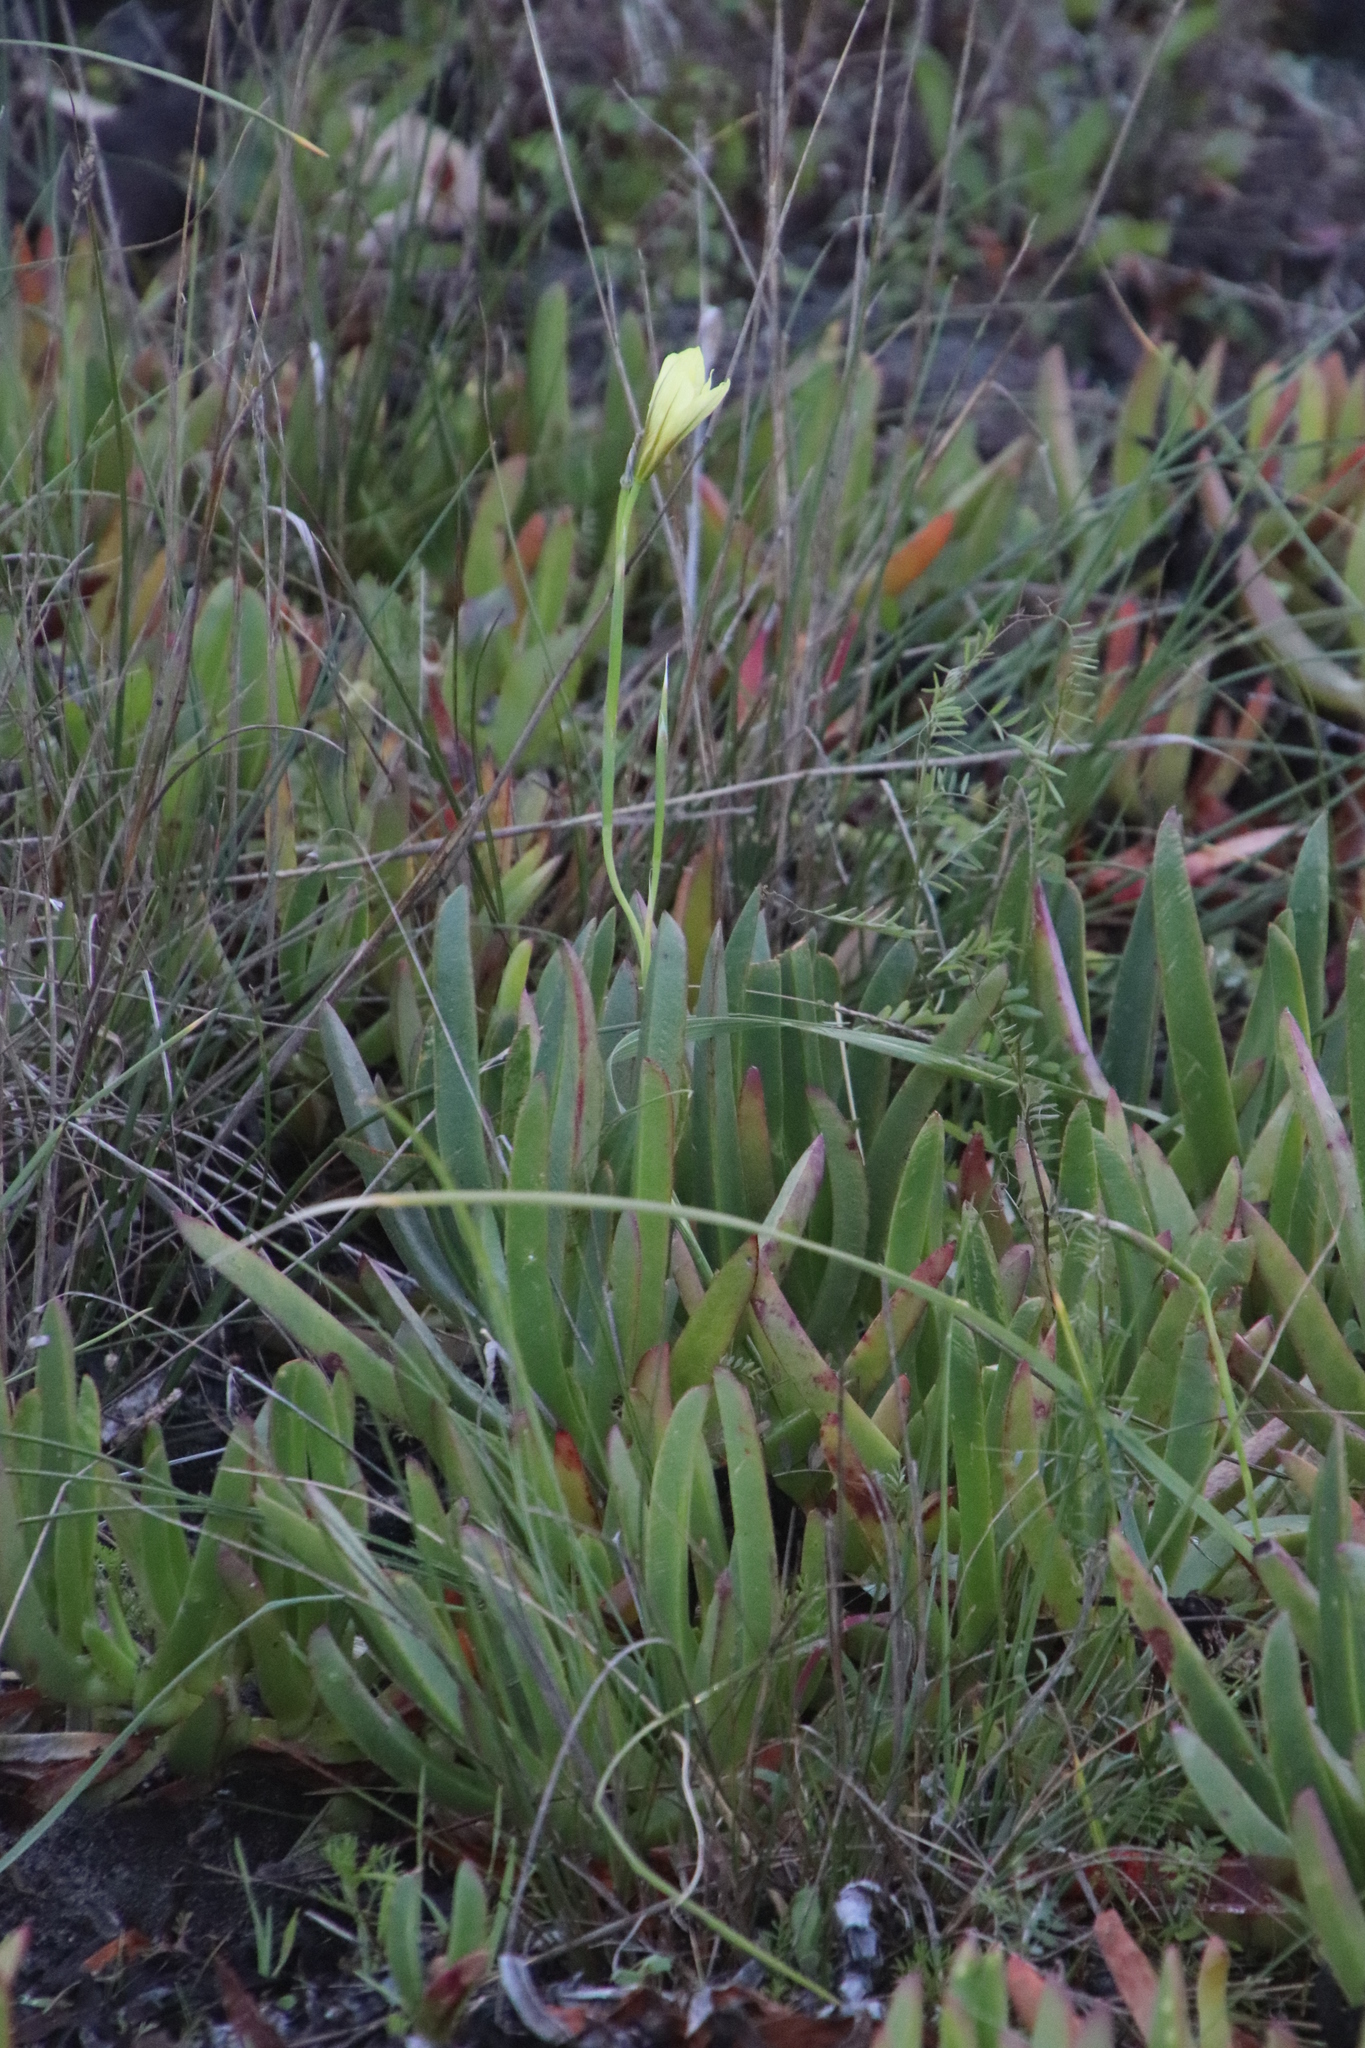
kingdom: Plantae
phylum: Tracheophyta
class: Liliopsida
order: Asparagales
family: Iridaceae
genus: Moraea
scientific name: Moraea collina
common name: Cape-tulip
